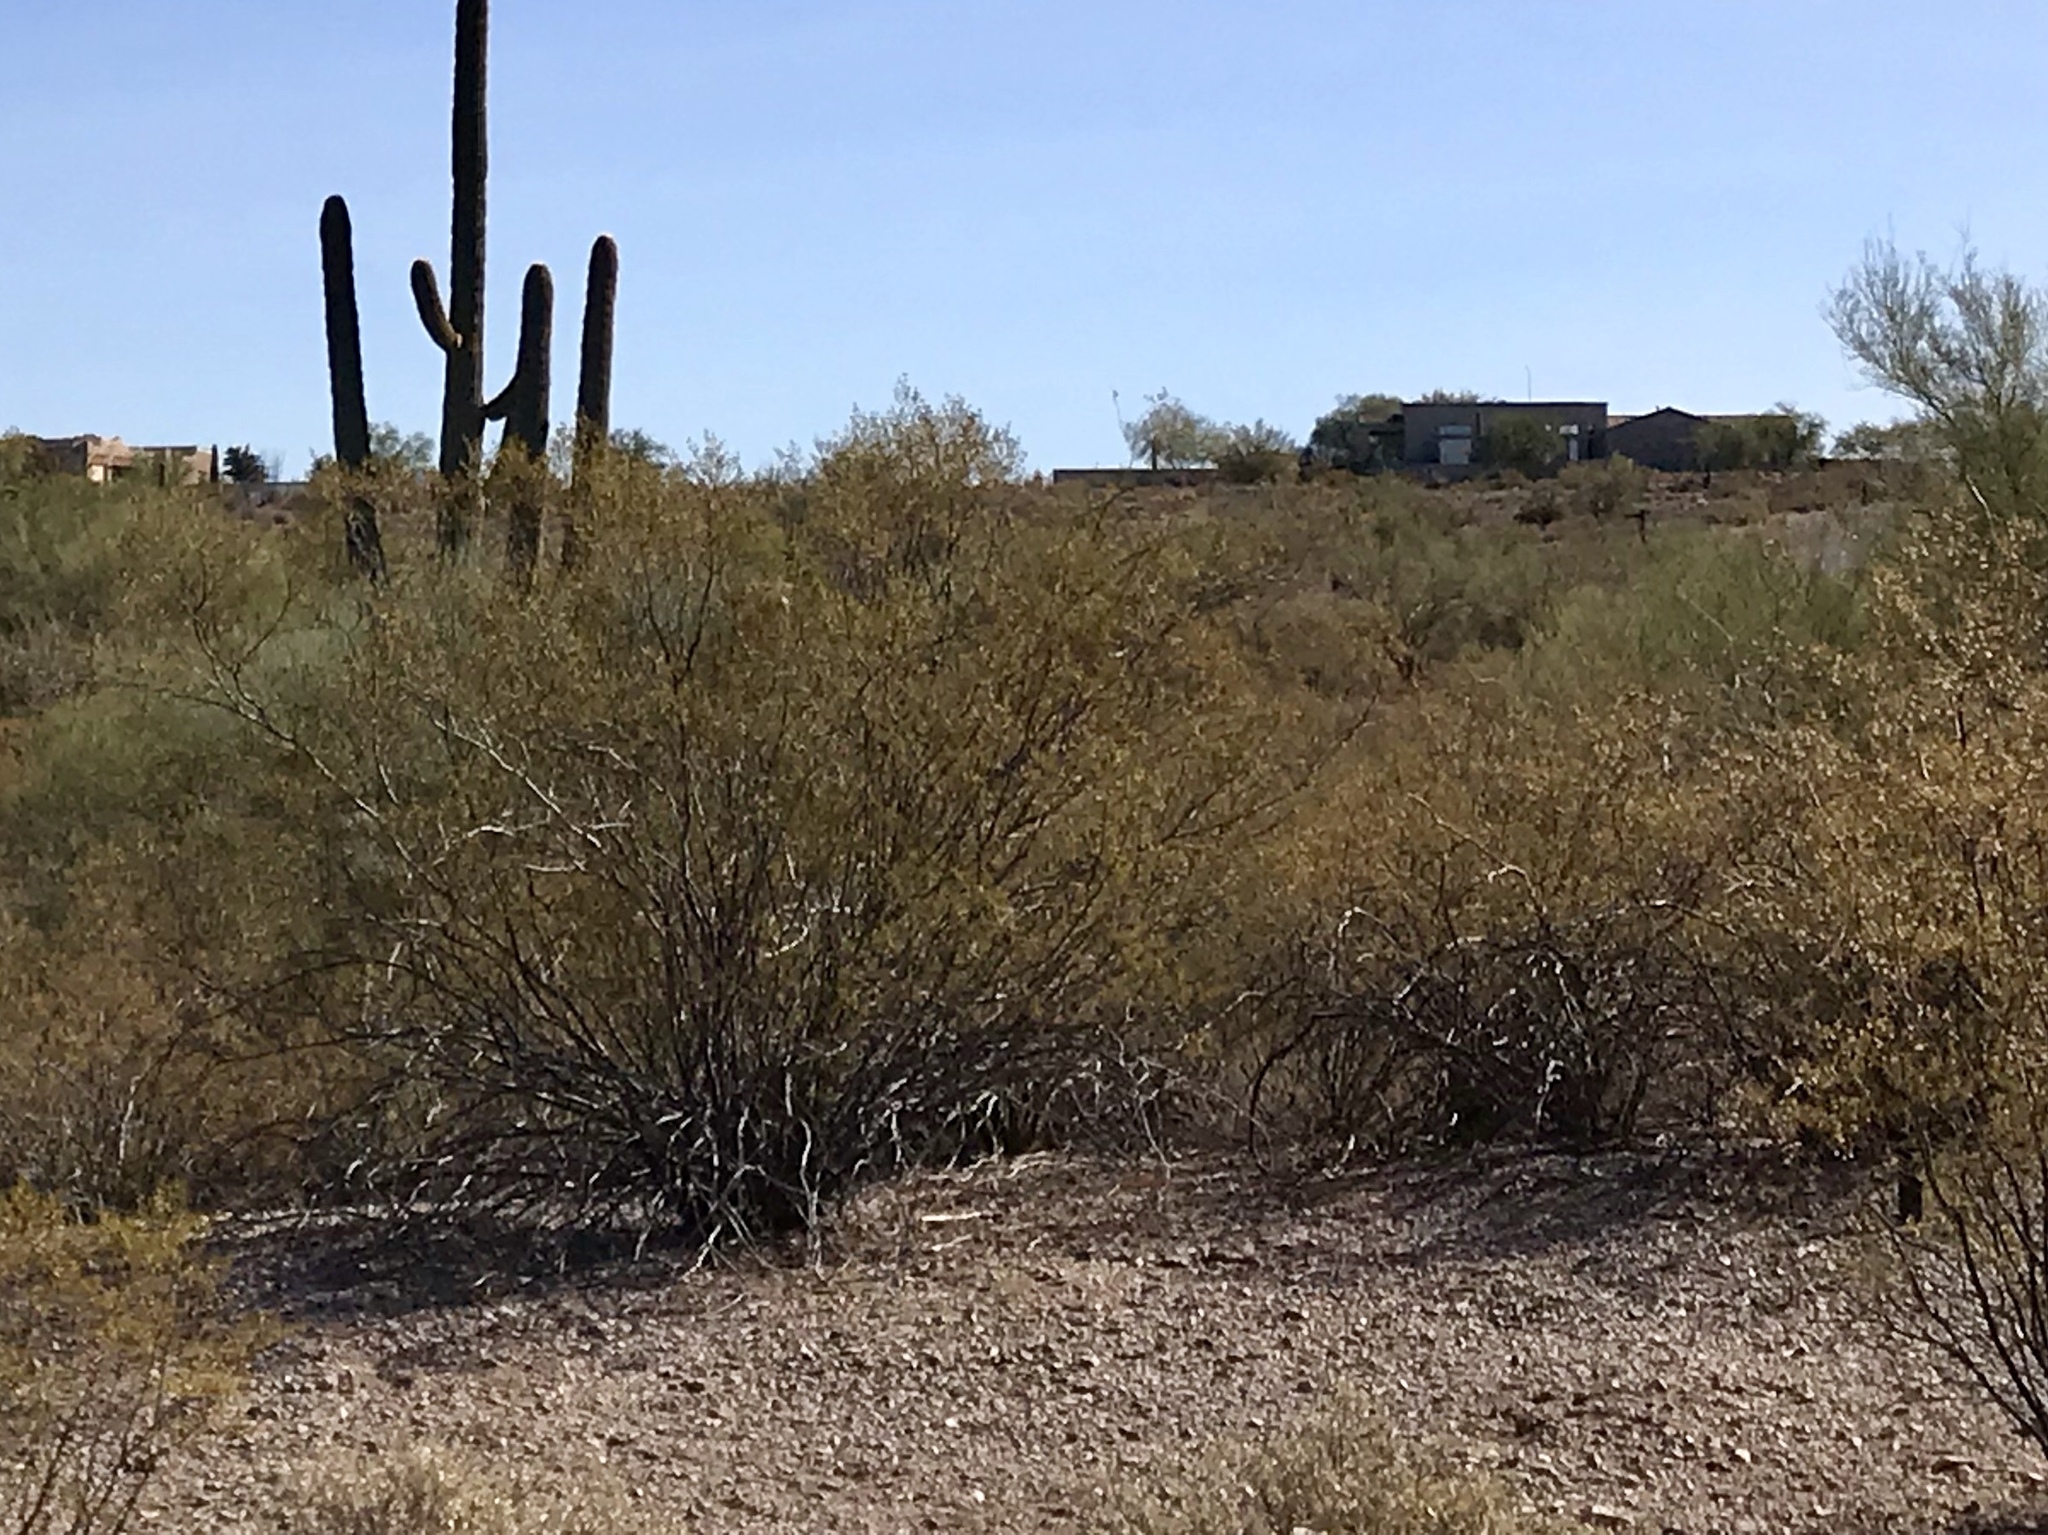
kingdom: Plantae
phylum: Tracheophyta
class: Magnoliopsida
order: Zygophyllales
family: Zygophyllaceae
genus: Larrea
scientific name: Larrea tridentata
